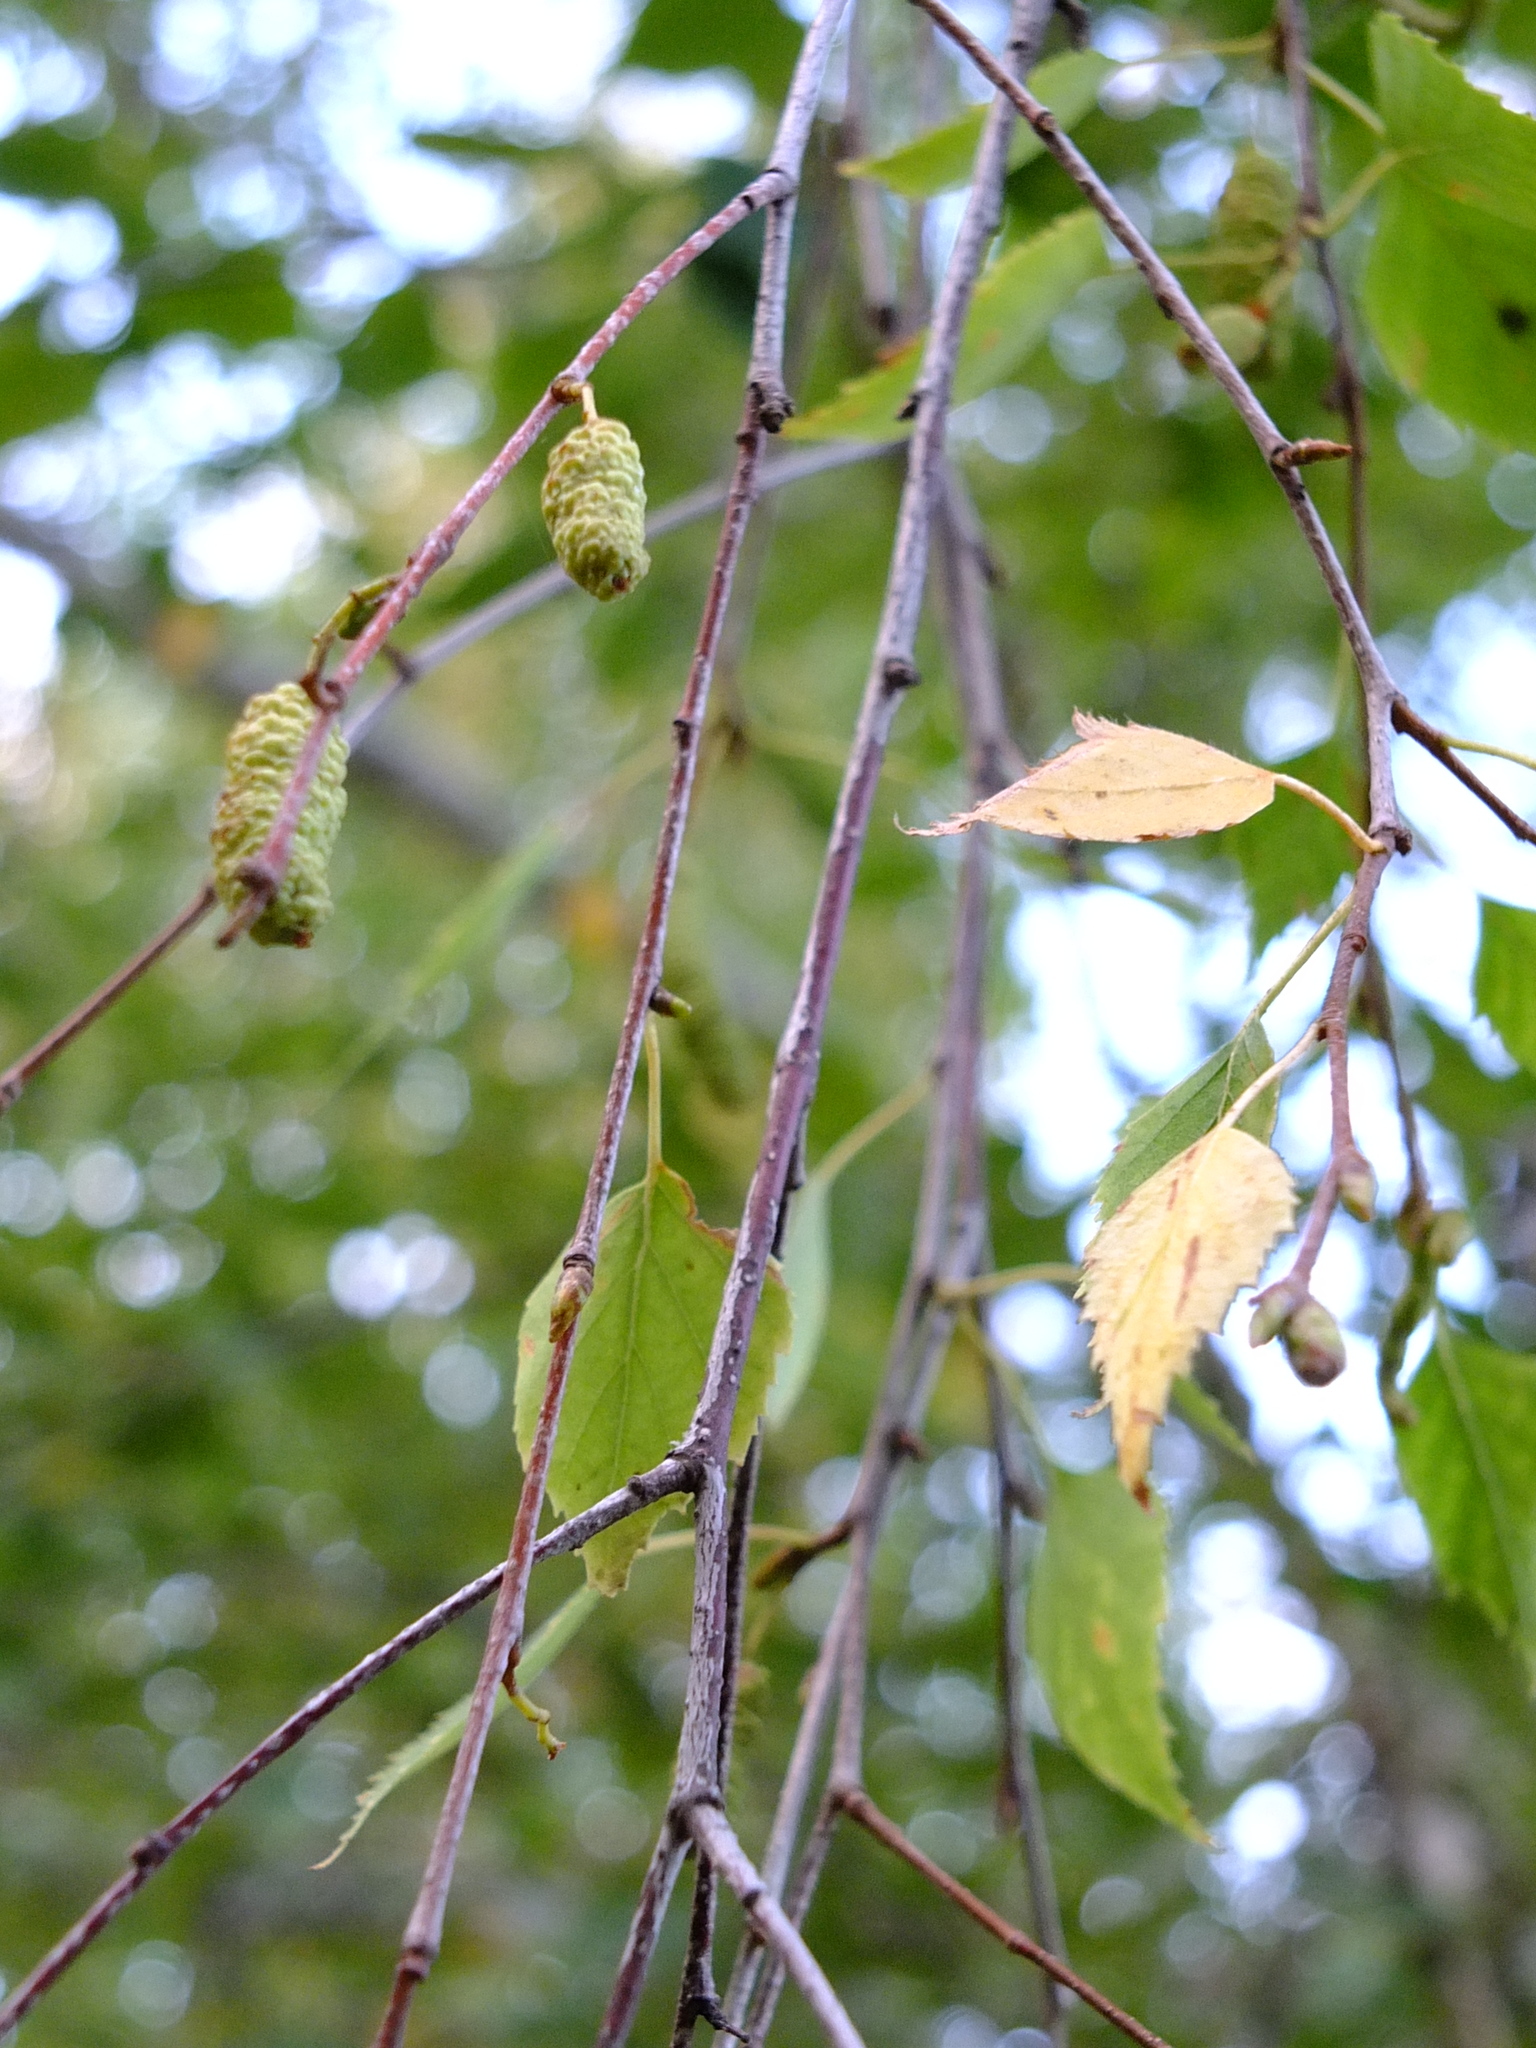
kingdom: Plantae
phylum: Tracheophyta
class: Magnoliopsida
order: Fagales
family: Betulaceae
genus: Betula
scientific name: Betula pendula
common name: Silver birch
